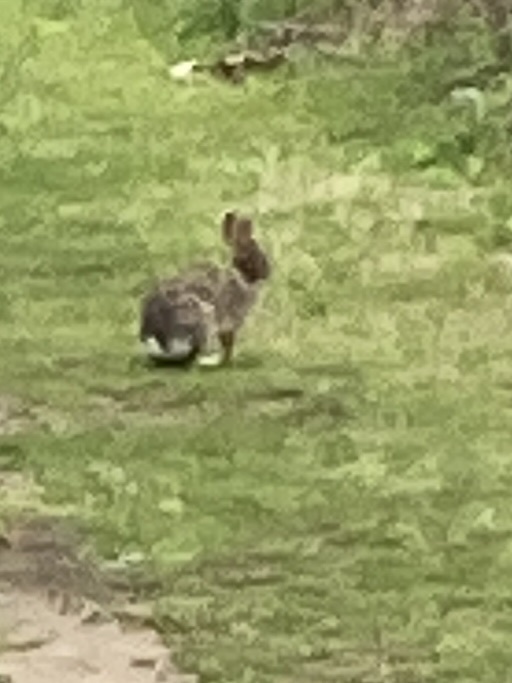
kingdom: Animalia
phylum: Chordata
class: Mammalia
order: Lagomorpha
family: Leporidae
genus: Sylvilagus
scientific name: Sylvilagus floridanus
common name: Eastern cottontail
